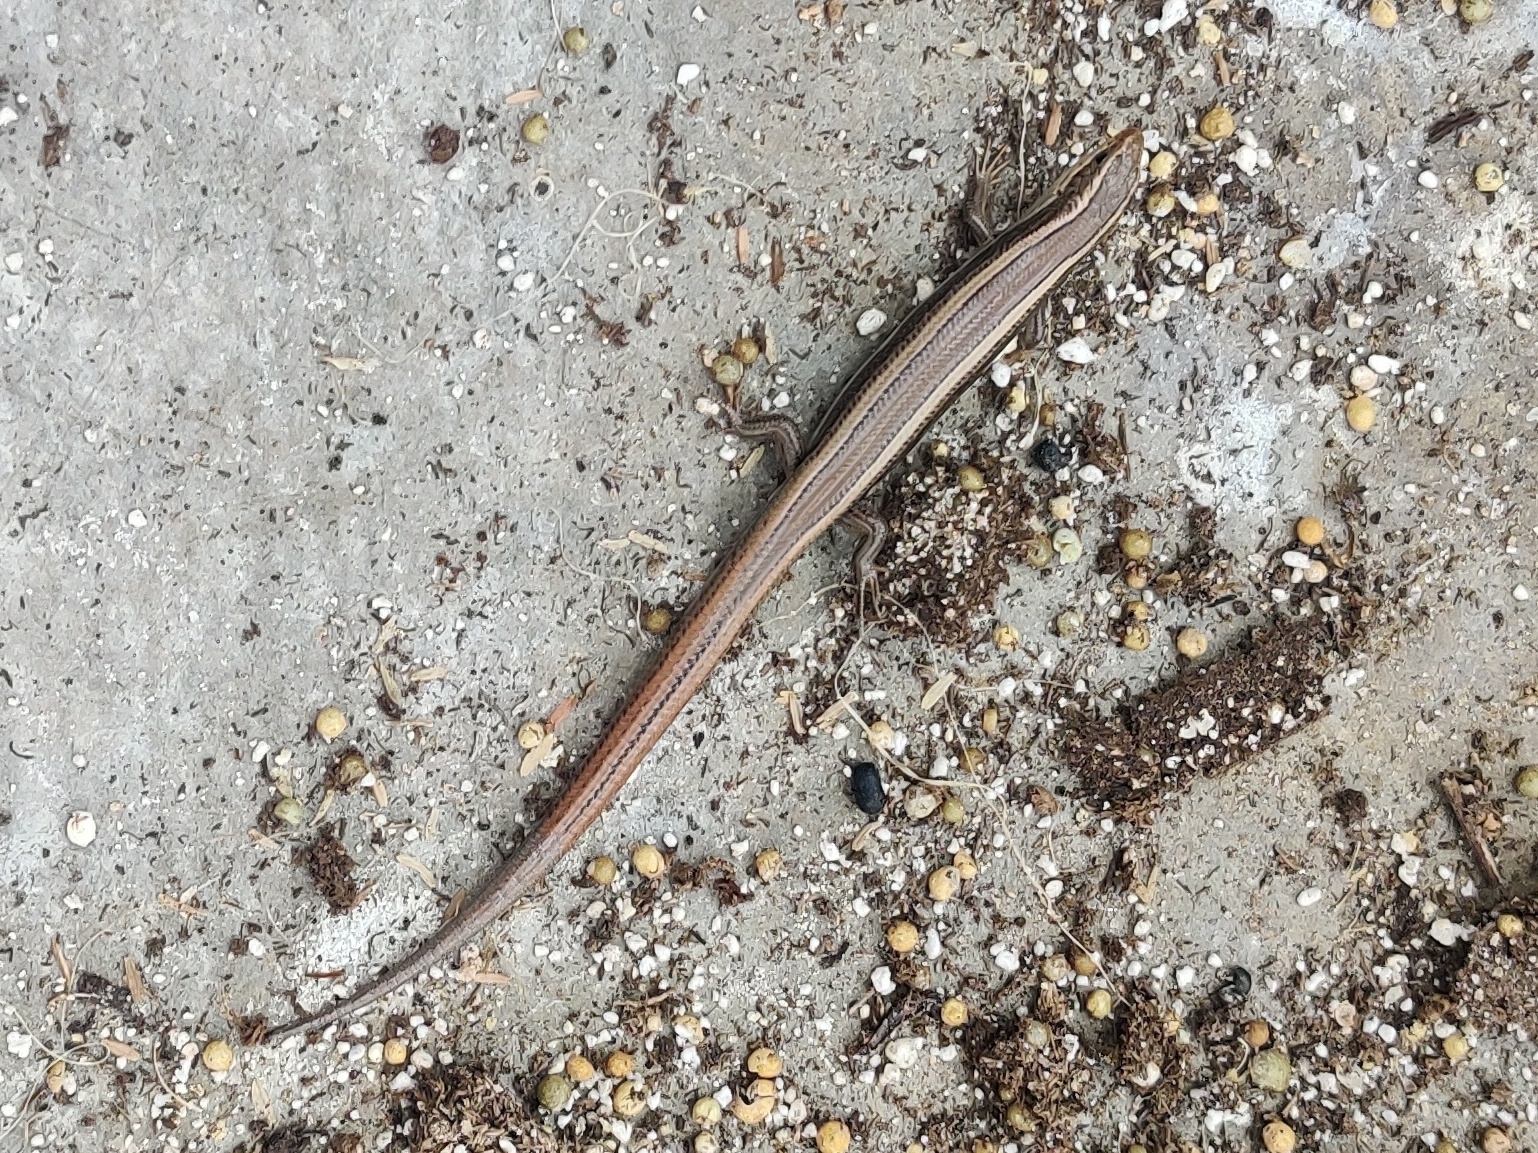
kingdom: Animalia
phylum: Chordata
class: Squamata
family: Scincidae
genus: Plestiodon
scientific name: Plestiodon skiltonianus
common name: Coronado island skink [interparietalis]
